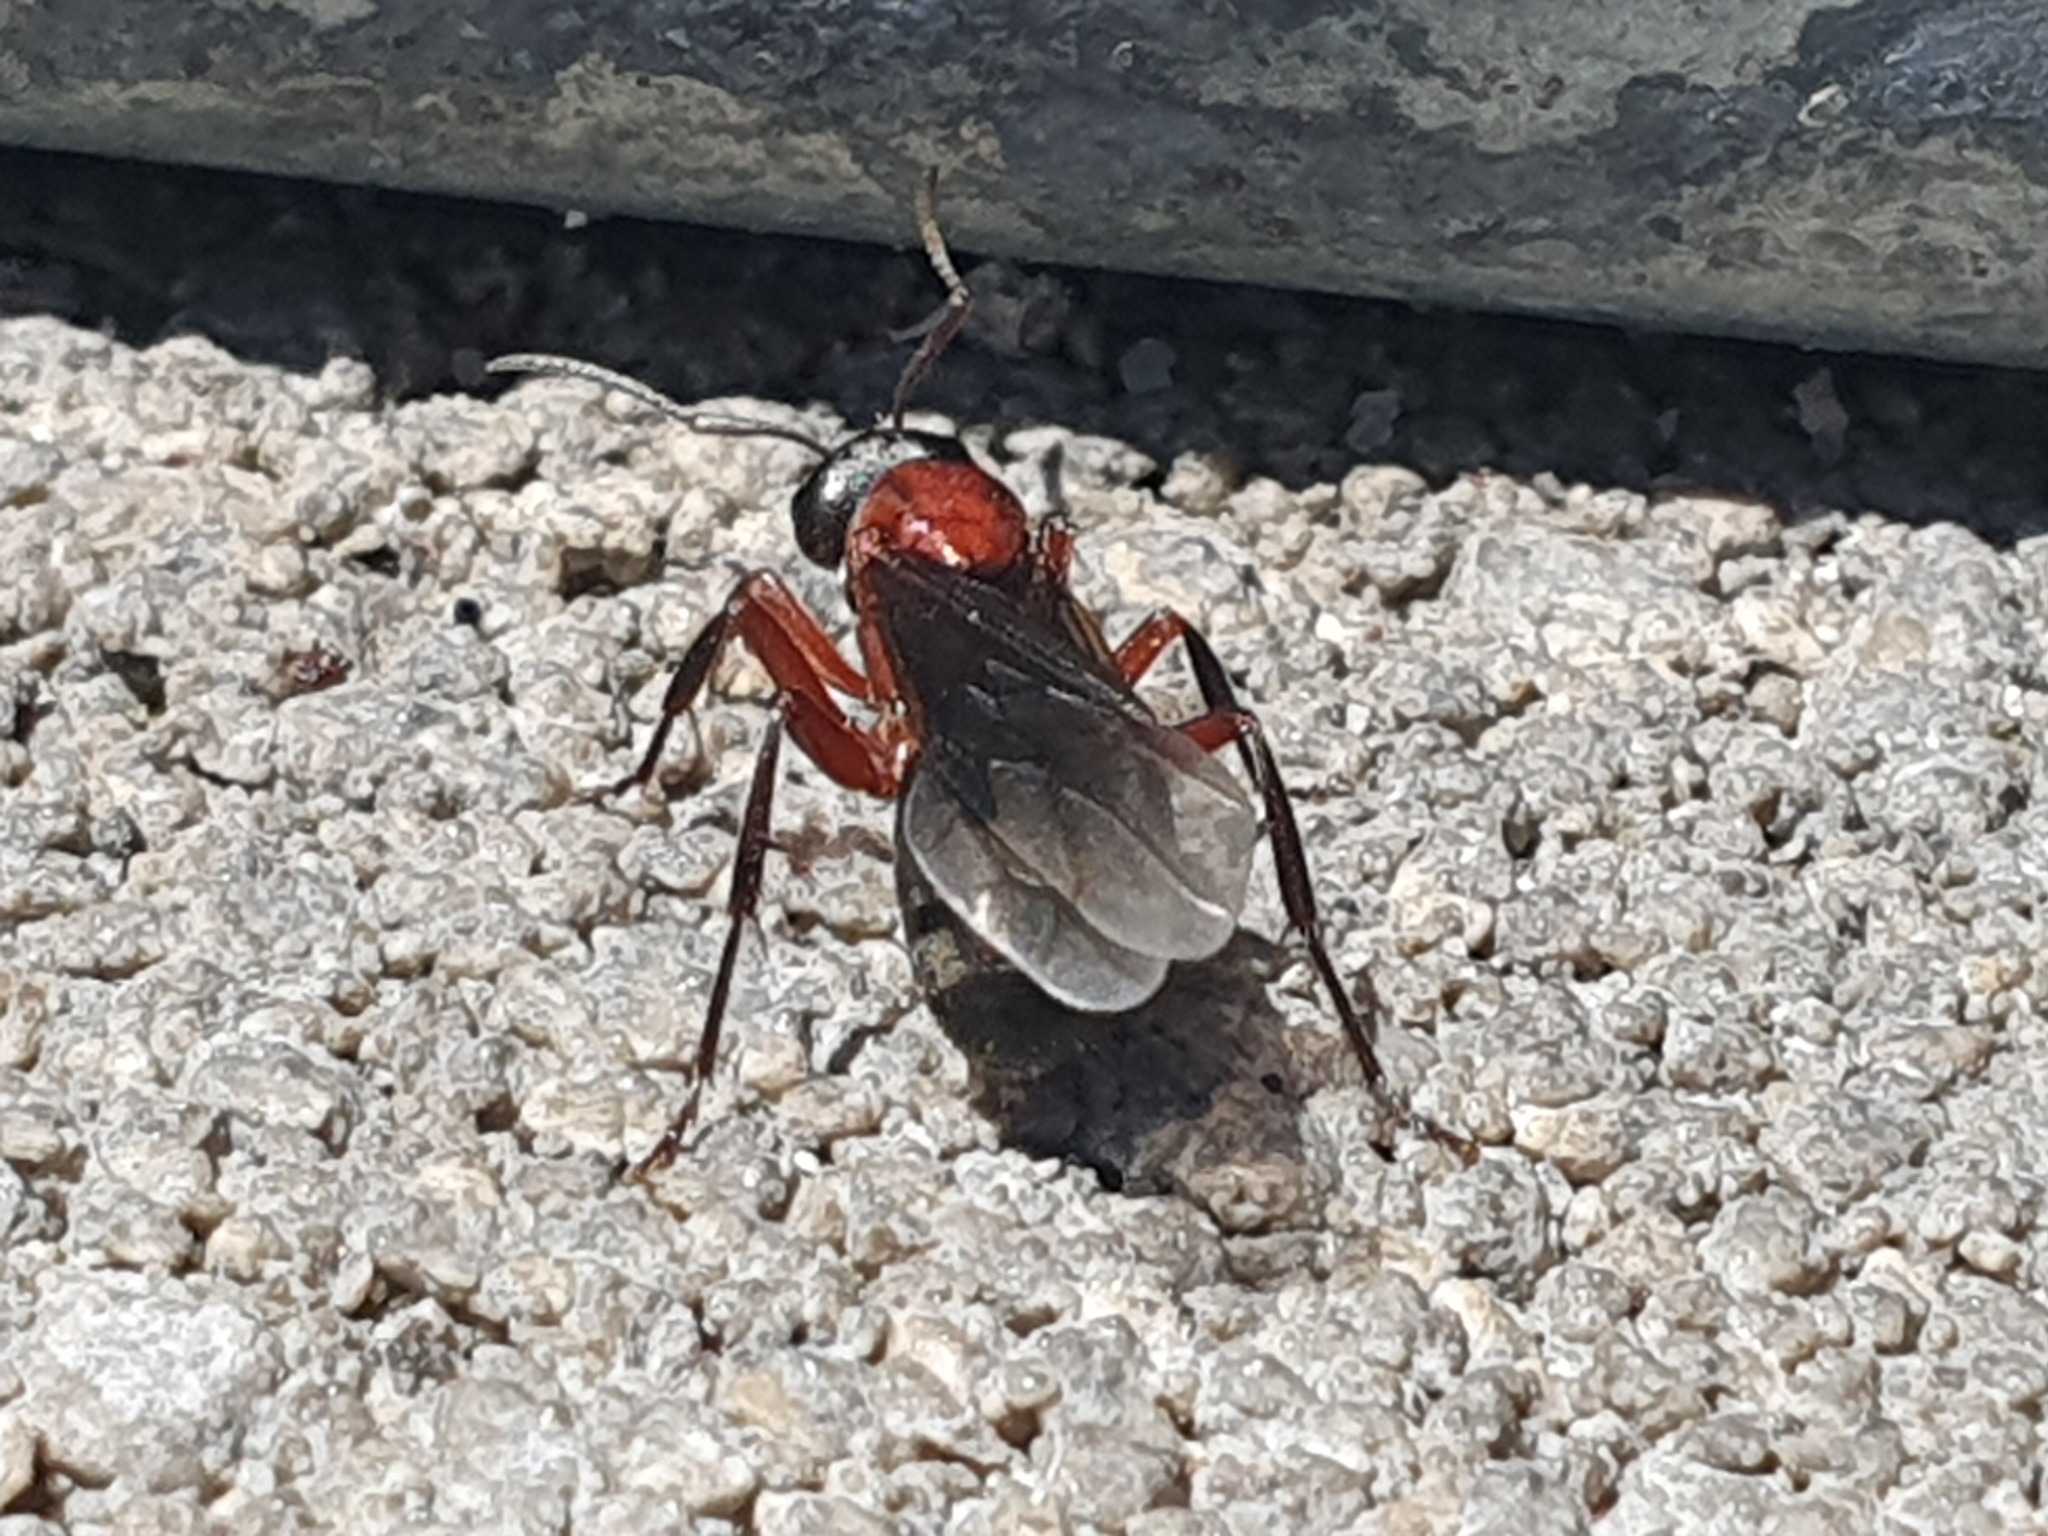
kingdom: Animalia
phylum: Arthropoda
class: Insecta
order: Hymenoptera
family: Formicidae
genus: Formica
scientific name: Formica sanguinea
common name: Blood-red ant
